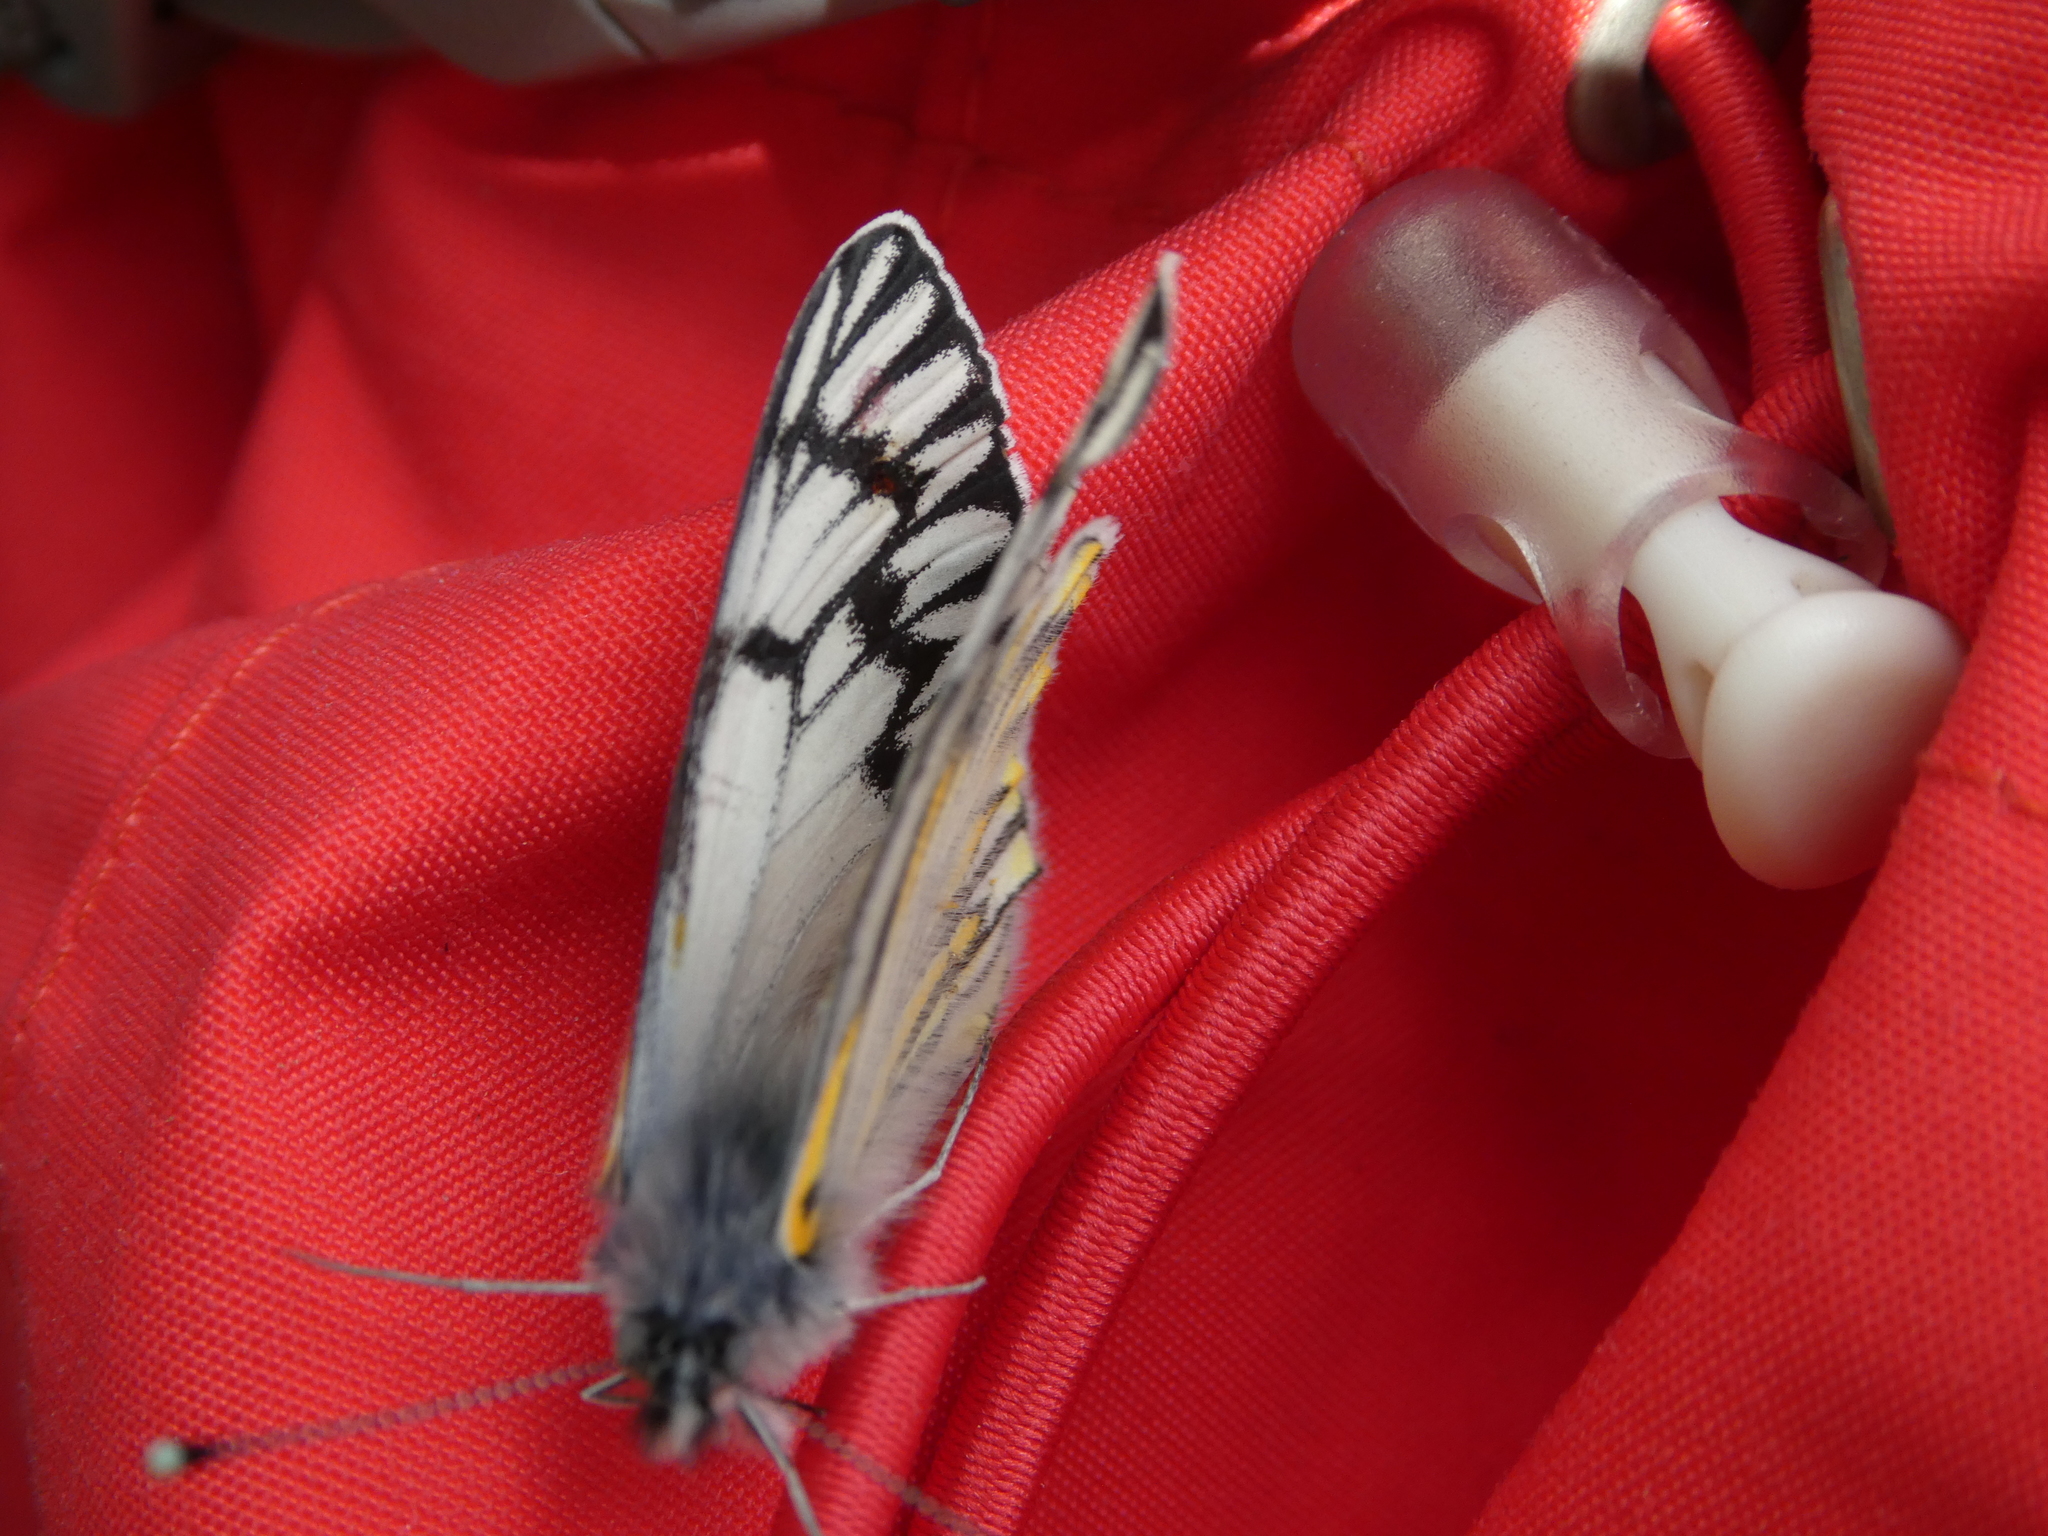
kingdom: Animalia
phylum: Arthropoda
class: Insecta
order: Lepidoptera
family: Pieridae
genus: Tatochila
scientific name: Tatochila theodice
